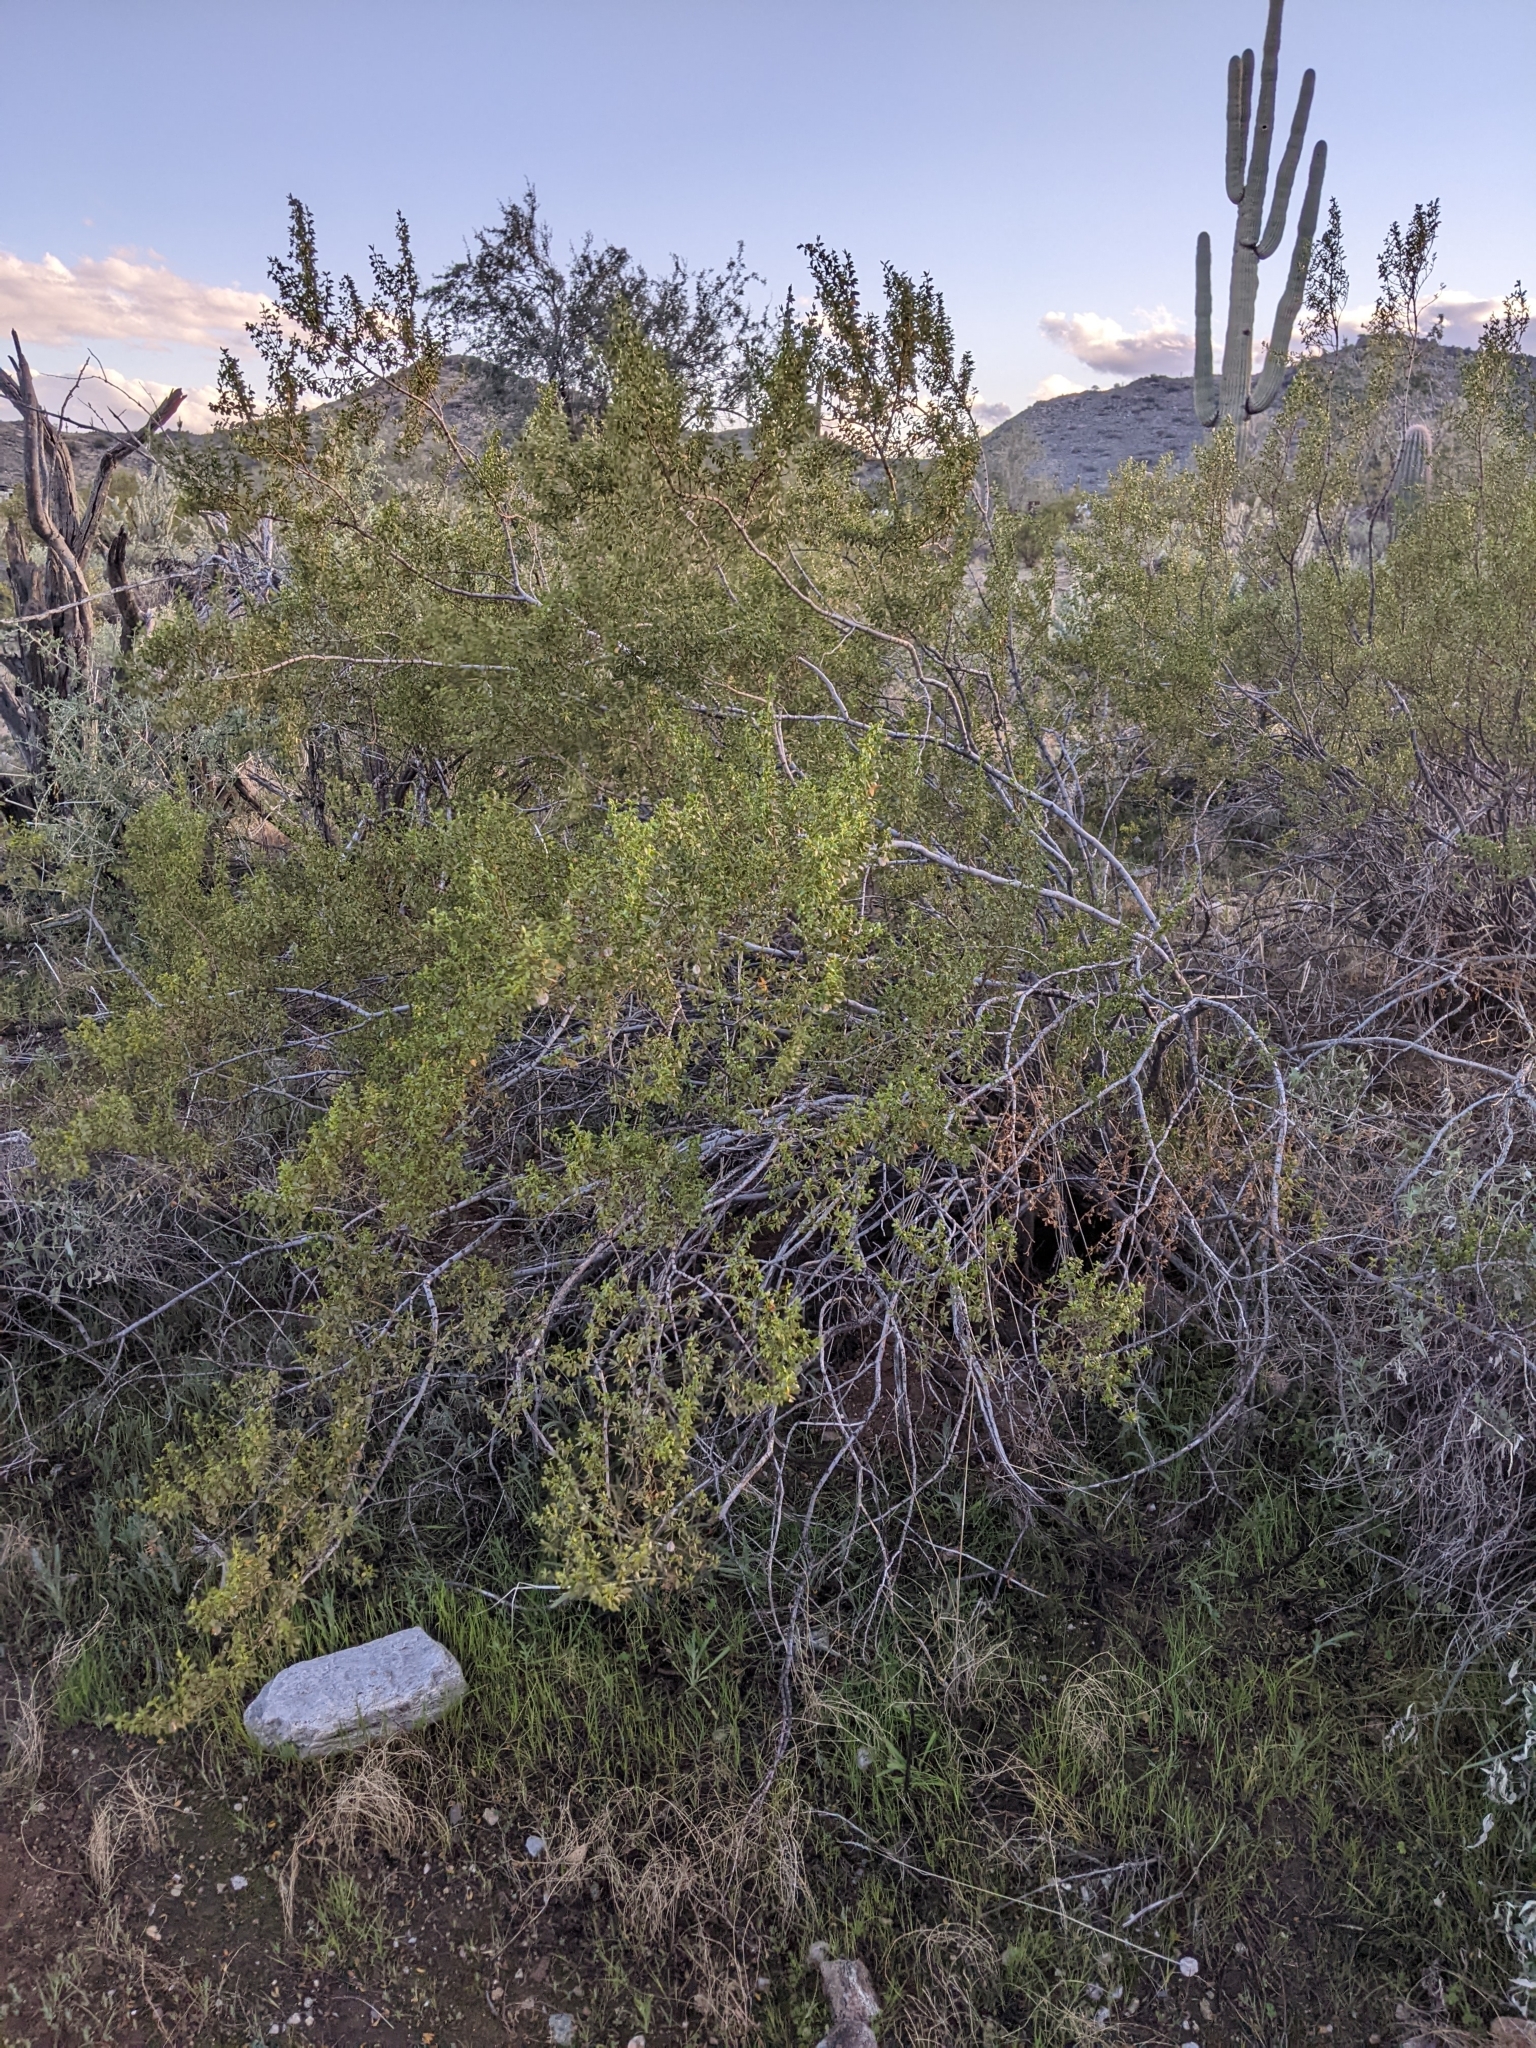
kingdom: Plantae
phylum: Tracheophyta
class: Magnoliopsida
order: Zygophyllales
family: Zygophyllaceae
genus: Larrea
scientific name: Larrea tridentata
